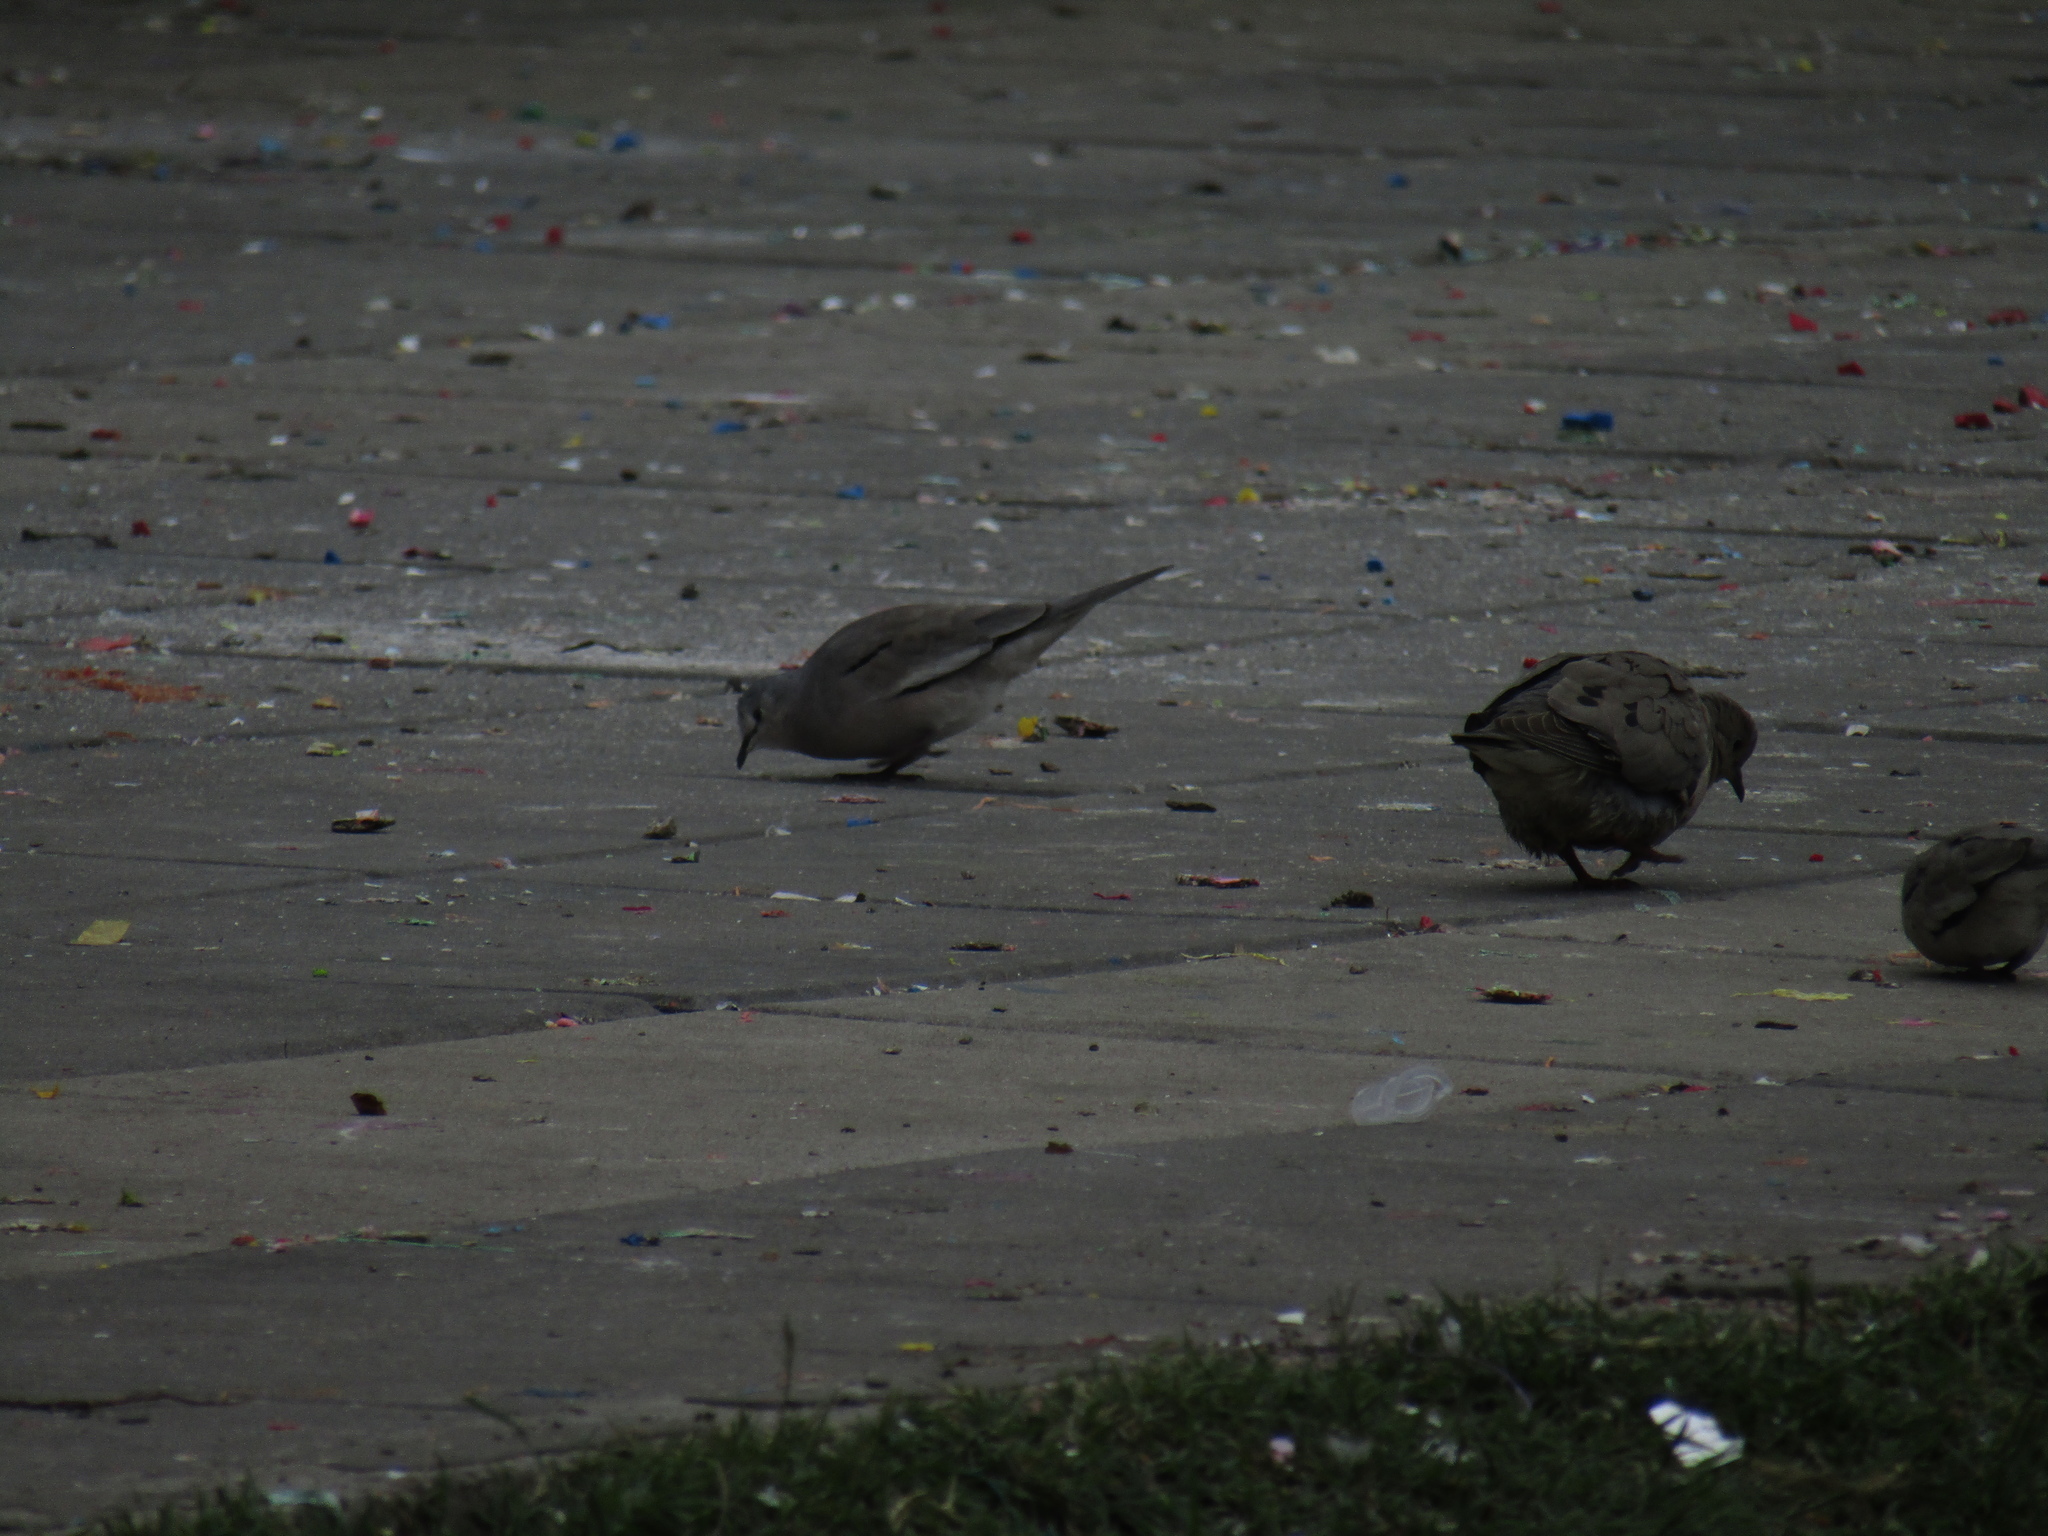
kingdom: Animalia
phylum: Chordata
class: Aves
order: Columbiformes
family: Columbidae
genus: Columbina
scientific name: Columbina picui
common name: Picui ground dove
